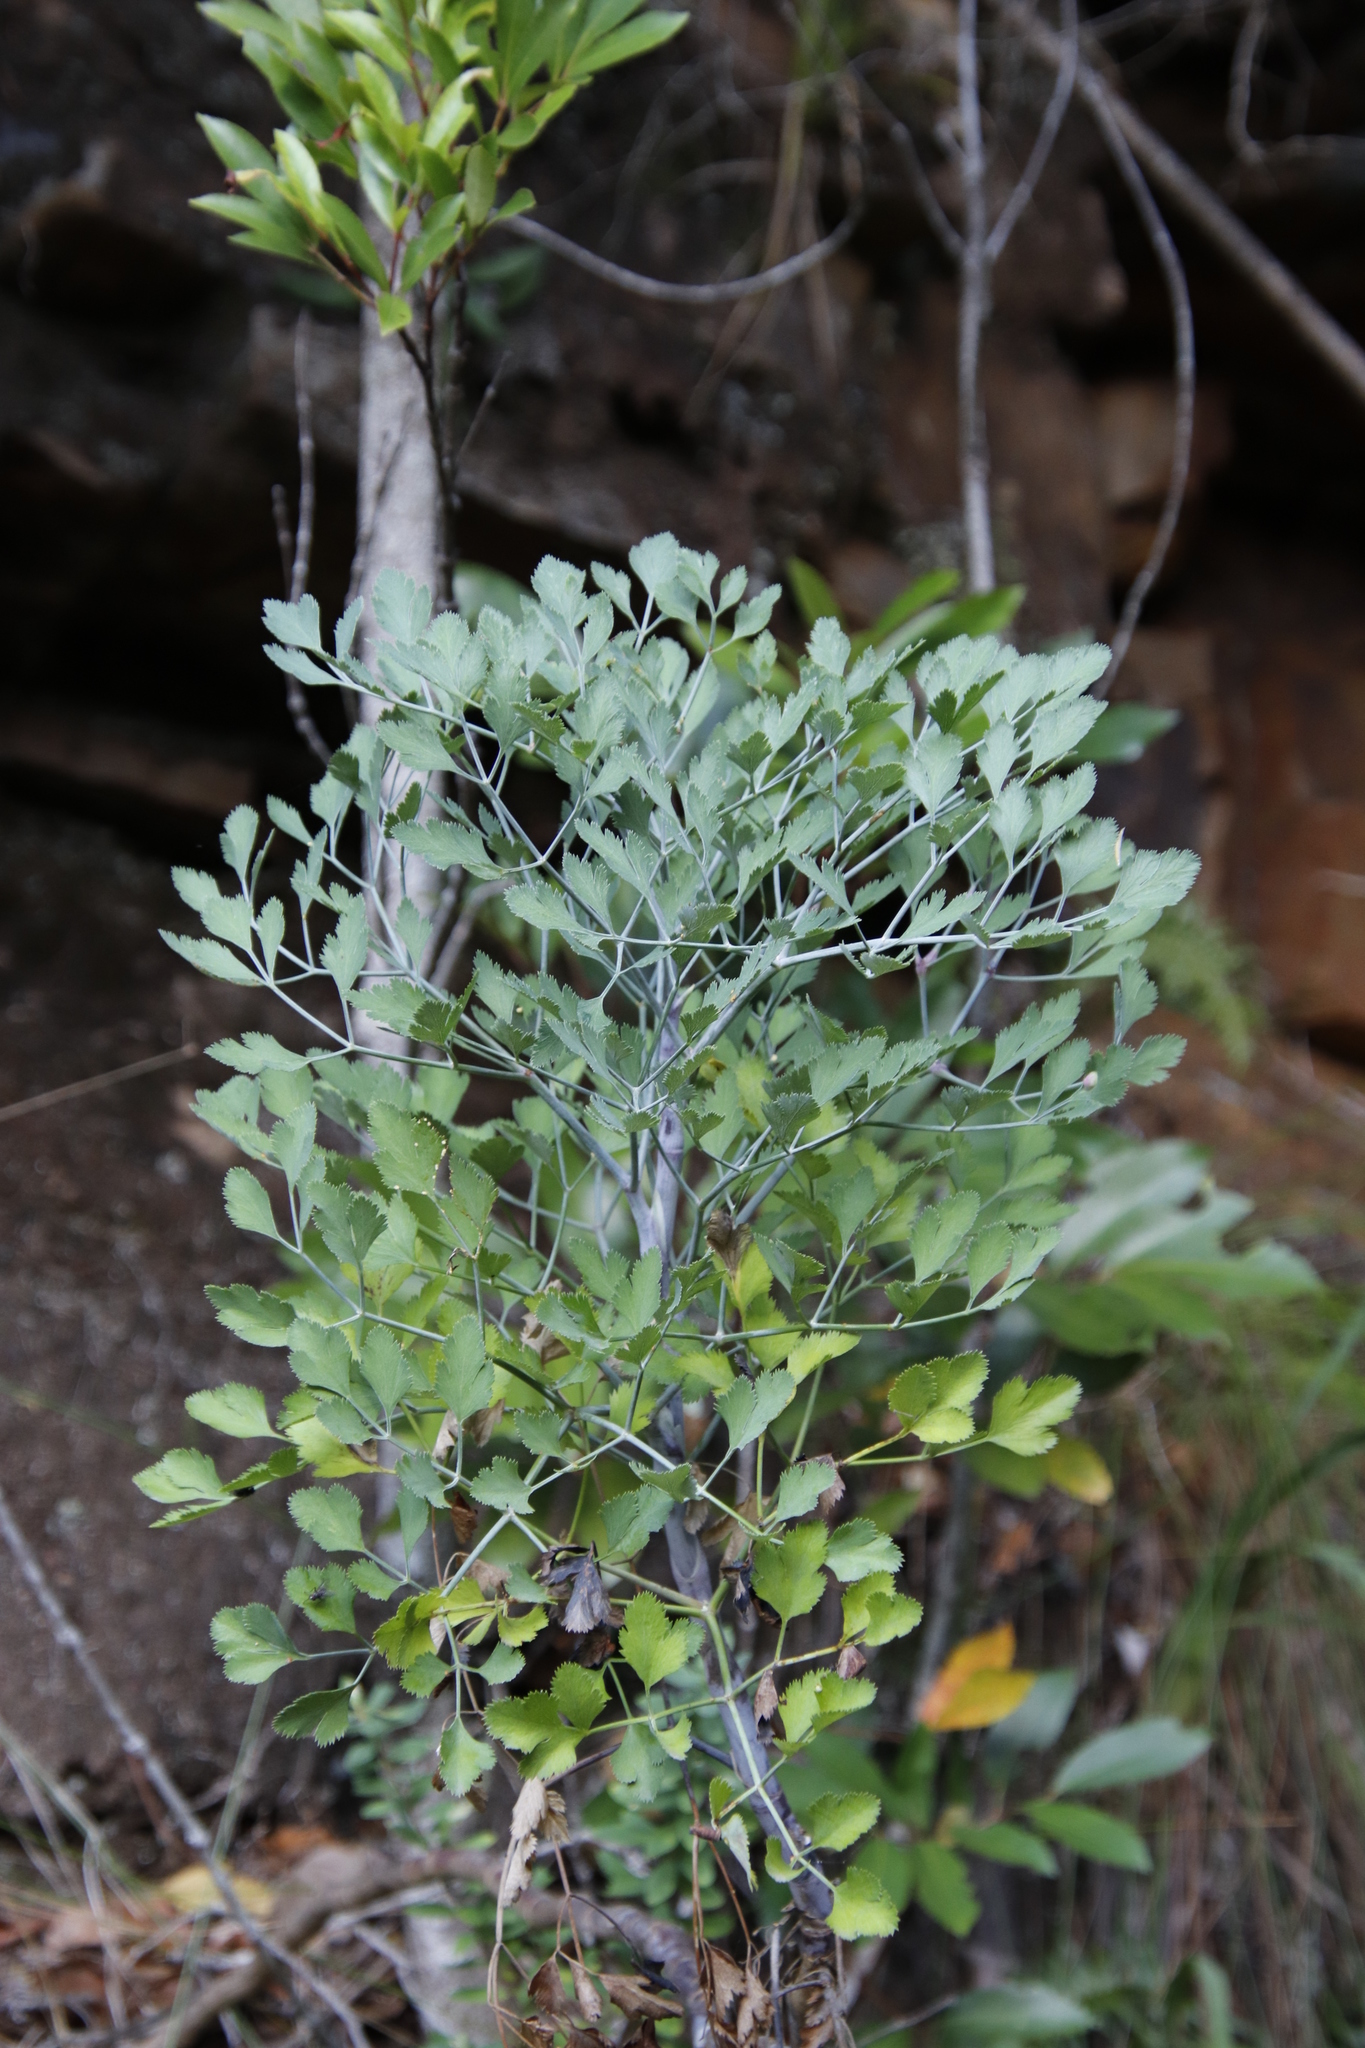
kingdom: Plantae
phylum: Tracheophyta
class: Magnoliopsida
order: Apiales
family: Apiaceae
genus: Notobubon
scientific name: Notobubon galbanum
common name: Blisterbush
